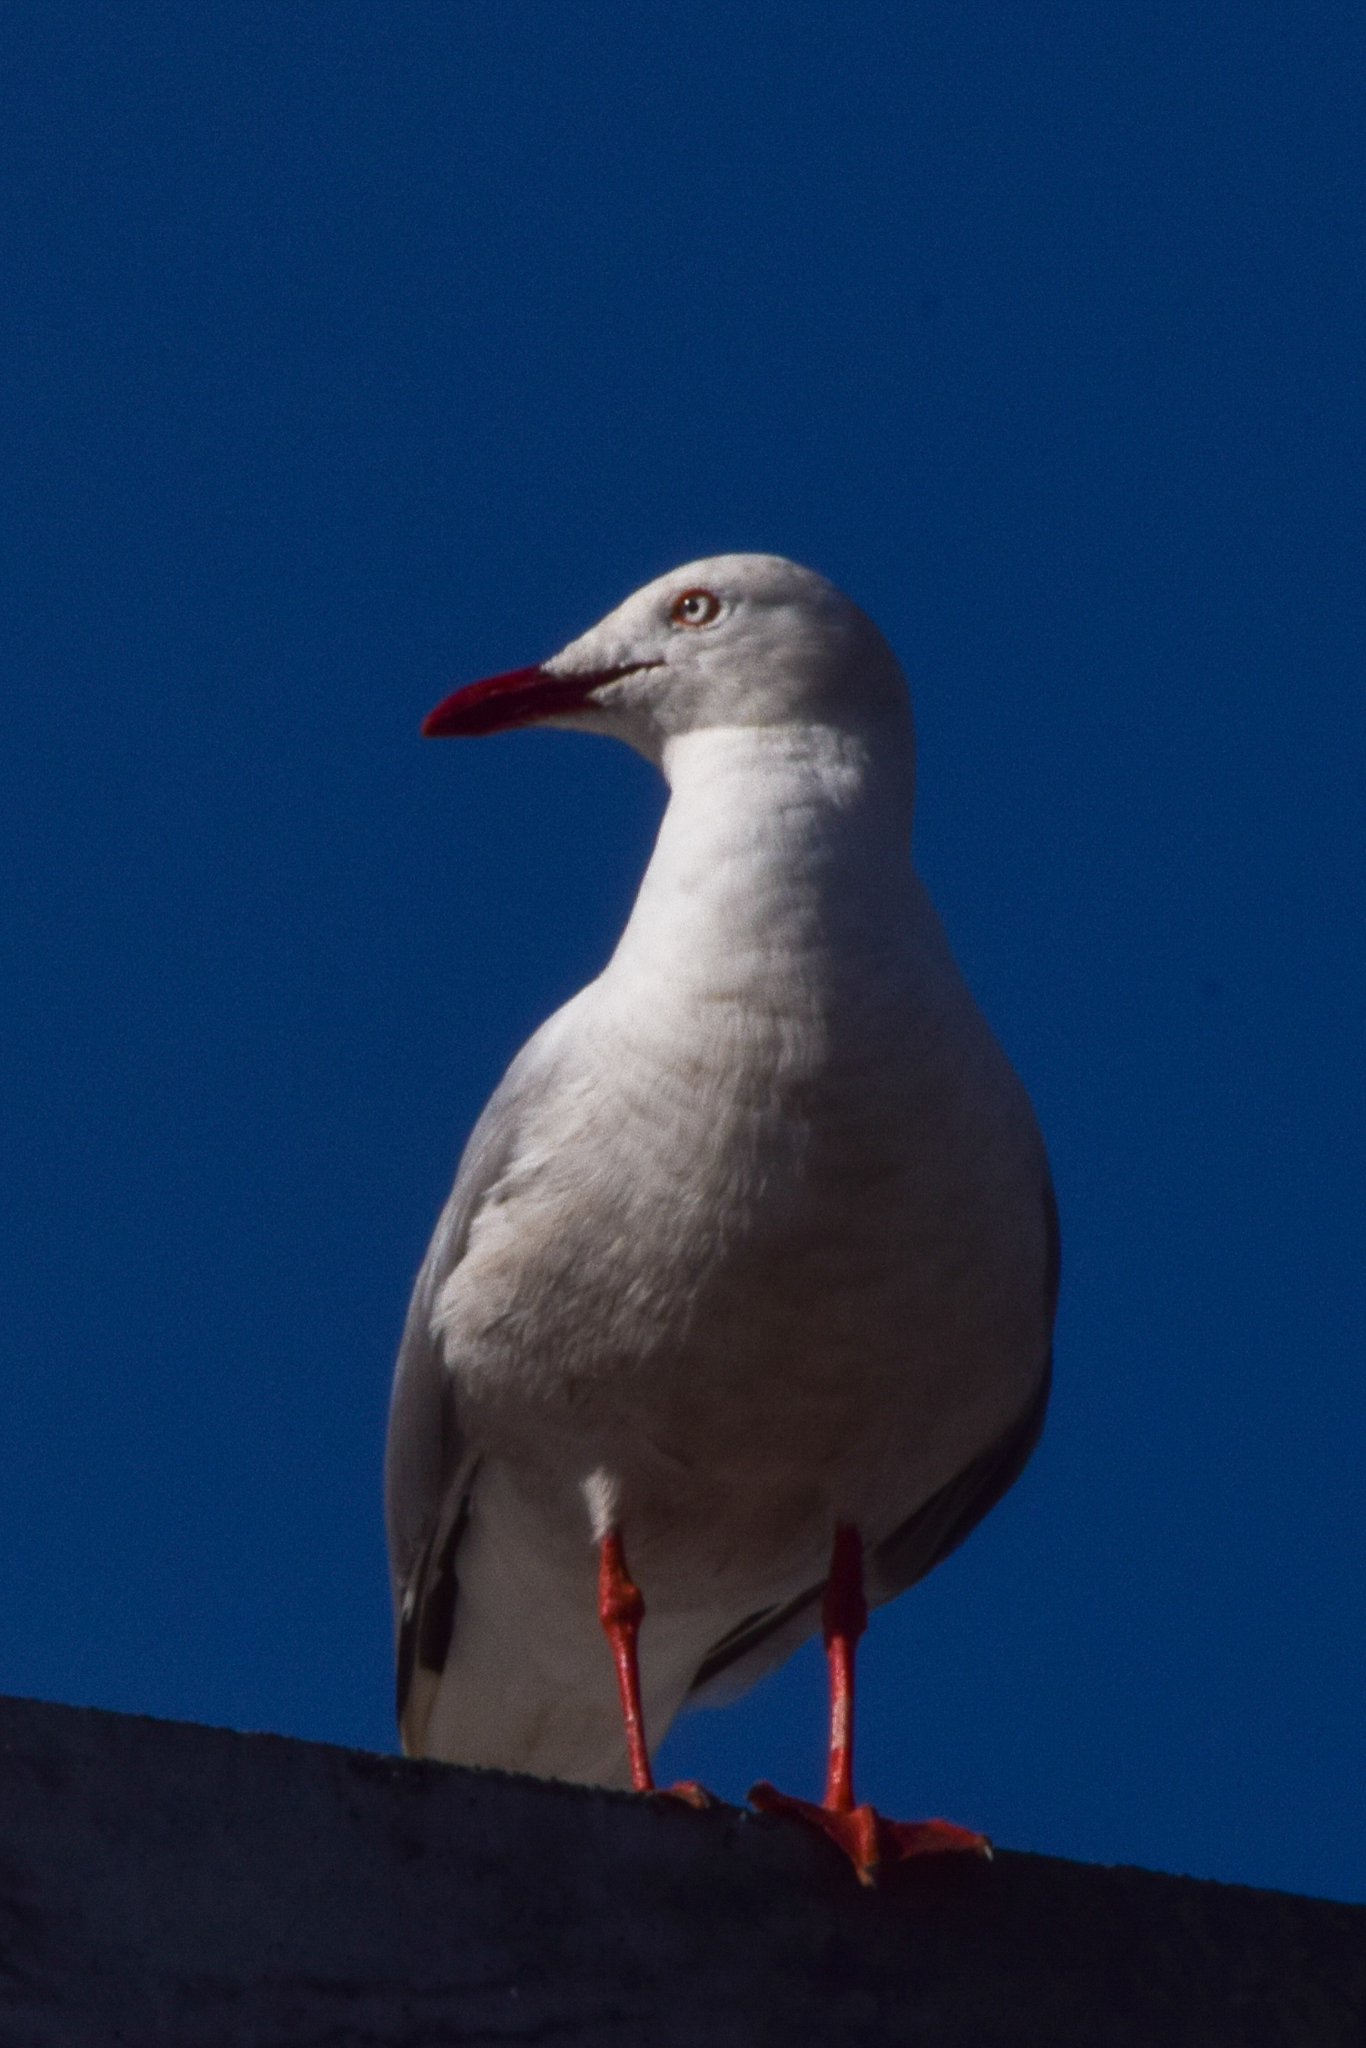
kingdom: Animalia
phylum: Chordata
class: Aves
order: Charadriiformes
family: Laridae
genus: Chroicocephalus
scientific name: Chroicocephalus novaehollandiae
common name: Silver gull
